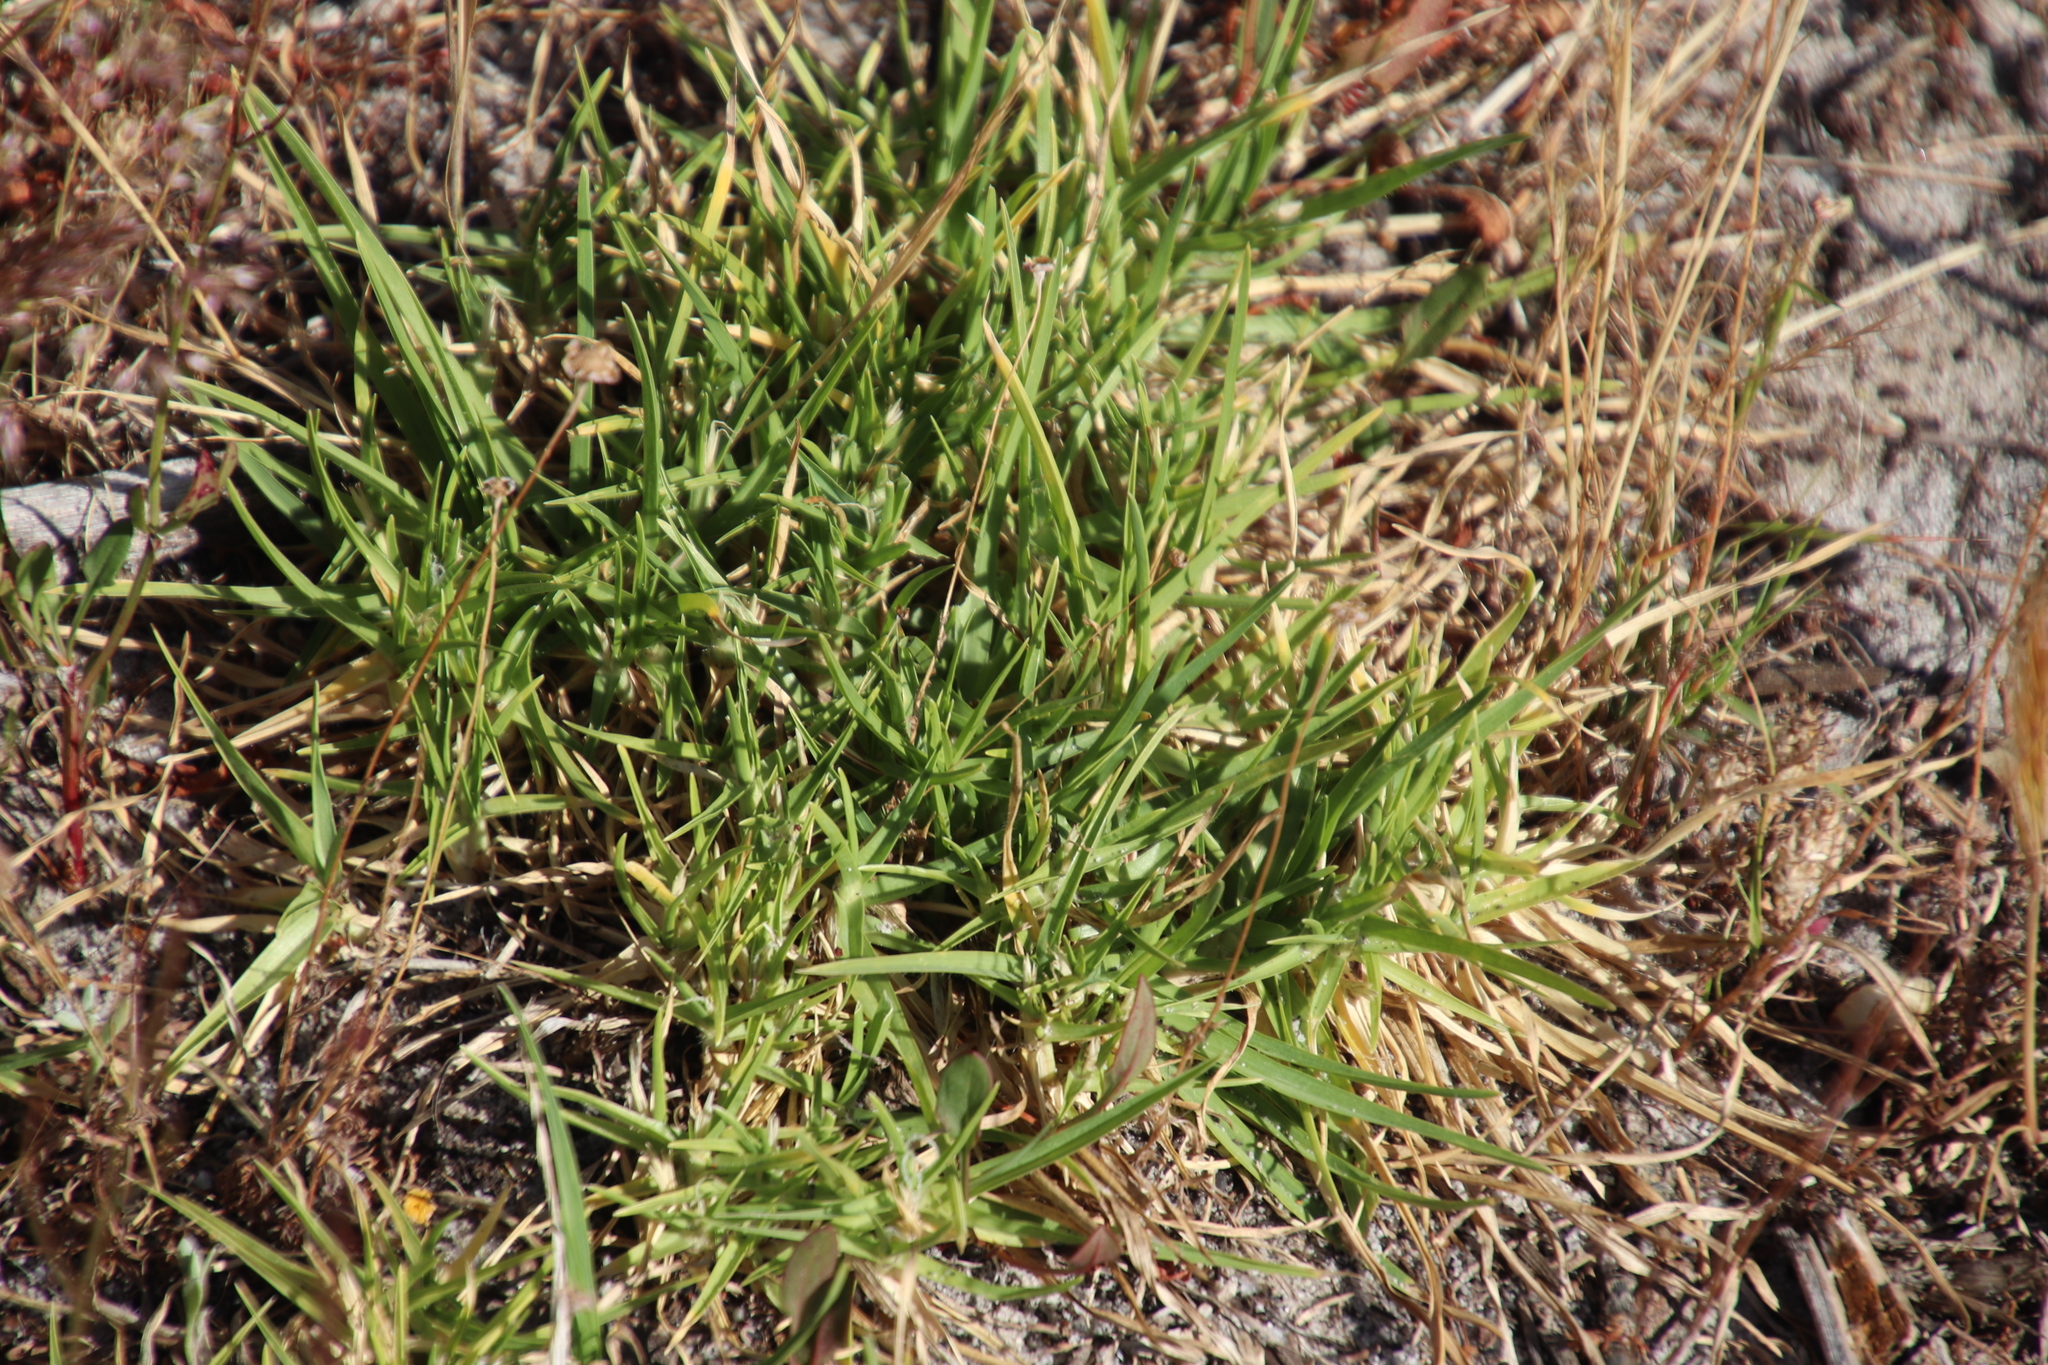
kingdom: Plantae
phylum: Tracheophyta
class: Liliopsida
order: Poales
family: Poaceae
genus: Cenchrus
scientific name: Cenchrus clandestinus
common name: Kikuyugrass
